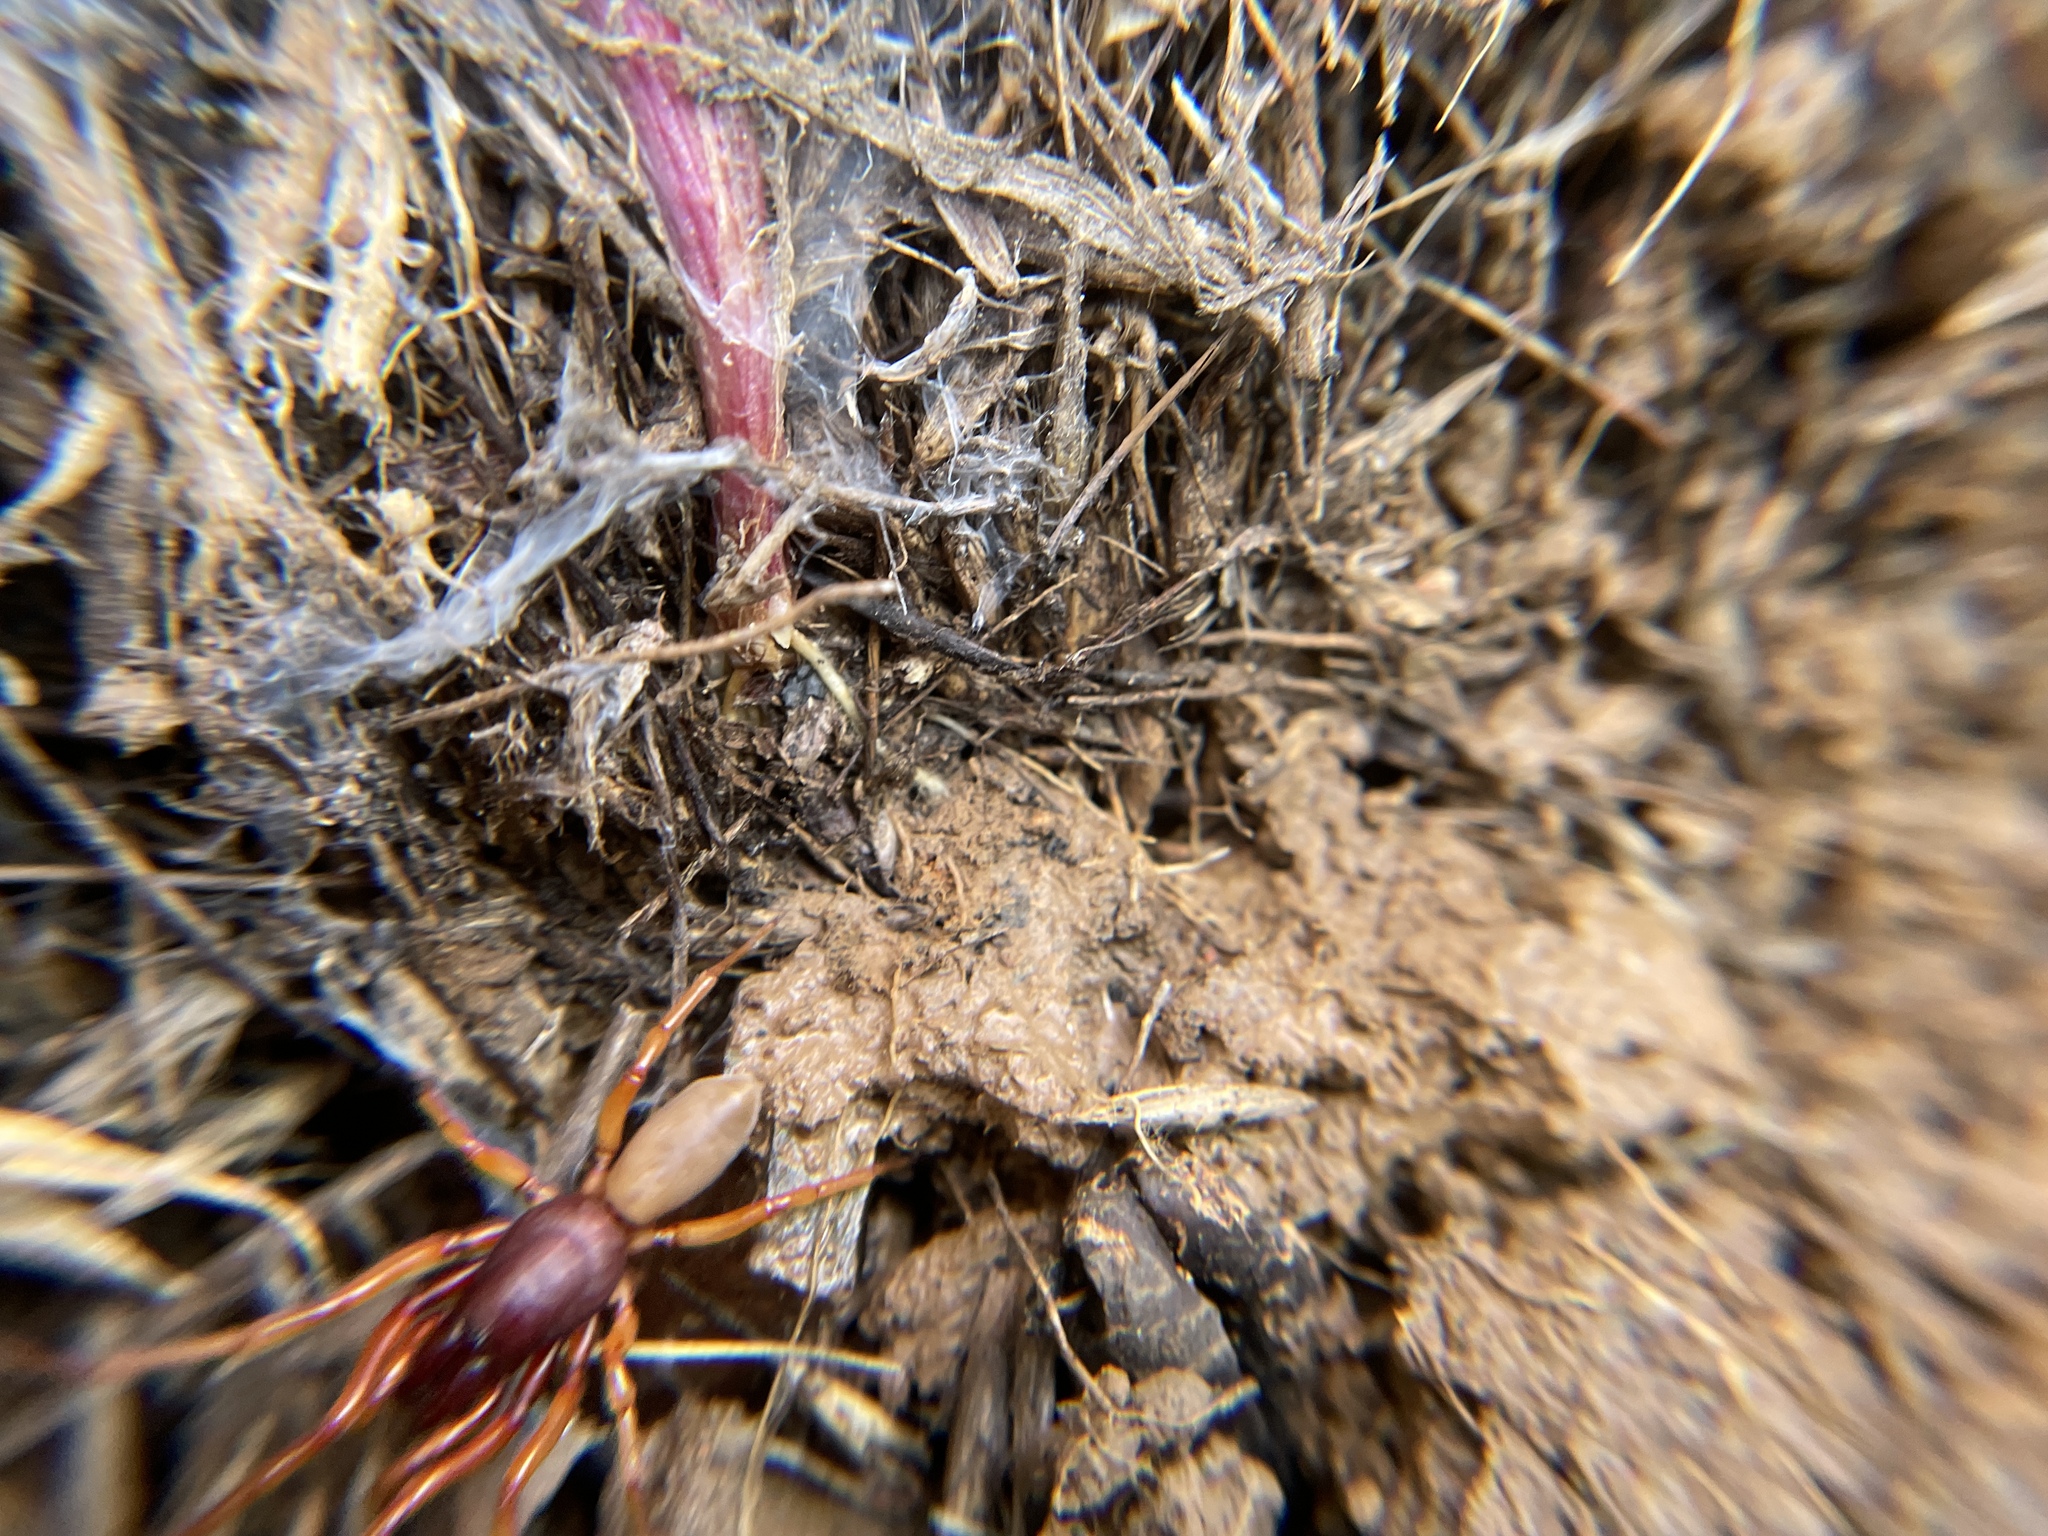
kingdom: Animalia
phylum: Arthropoda
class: Arachnida
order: Araneae
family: Dysderidae
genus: Dysdera
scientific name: Dysdera crocata
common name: Woodlouse spider
